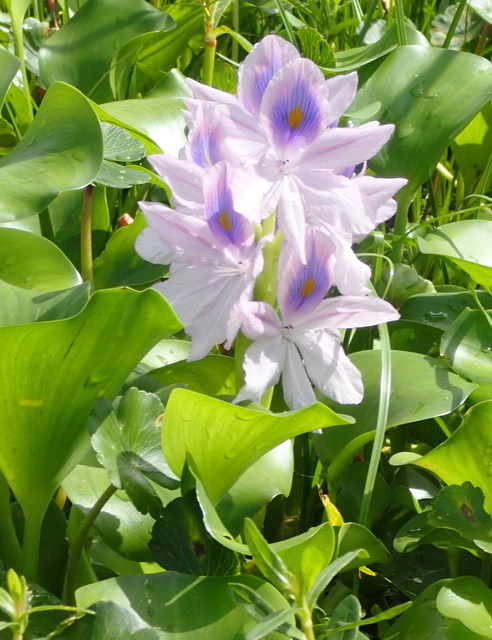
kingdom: Plantae
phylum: Tracheophyta
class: Liliopsida
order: Commelinales
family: Pontederiaceae
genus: Pontederia
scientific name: Pontederia crassipes
